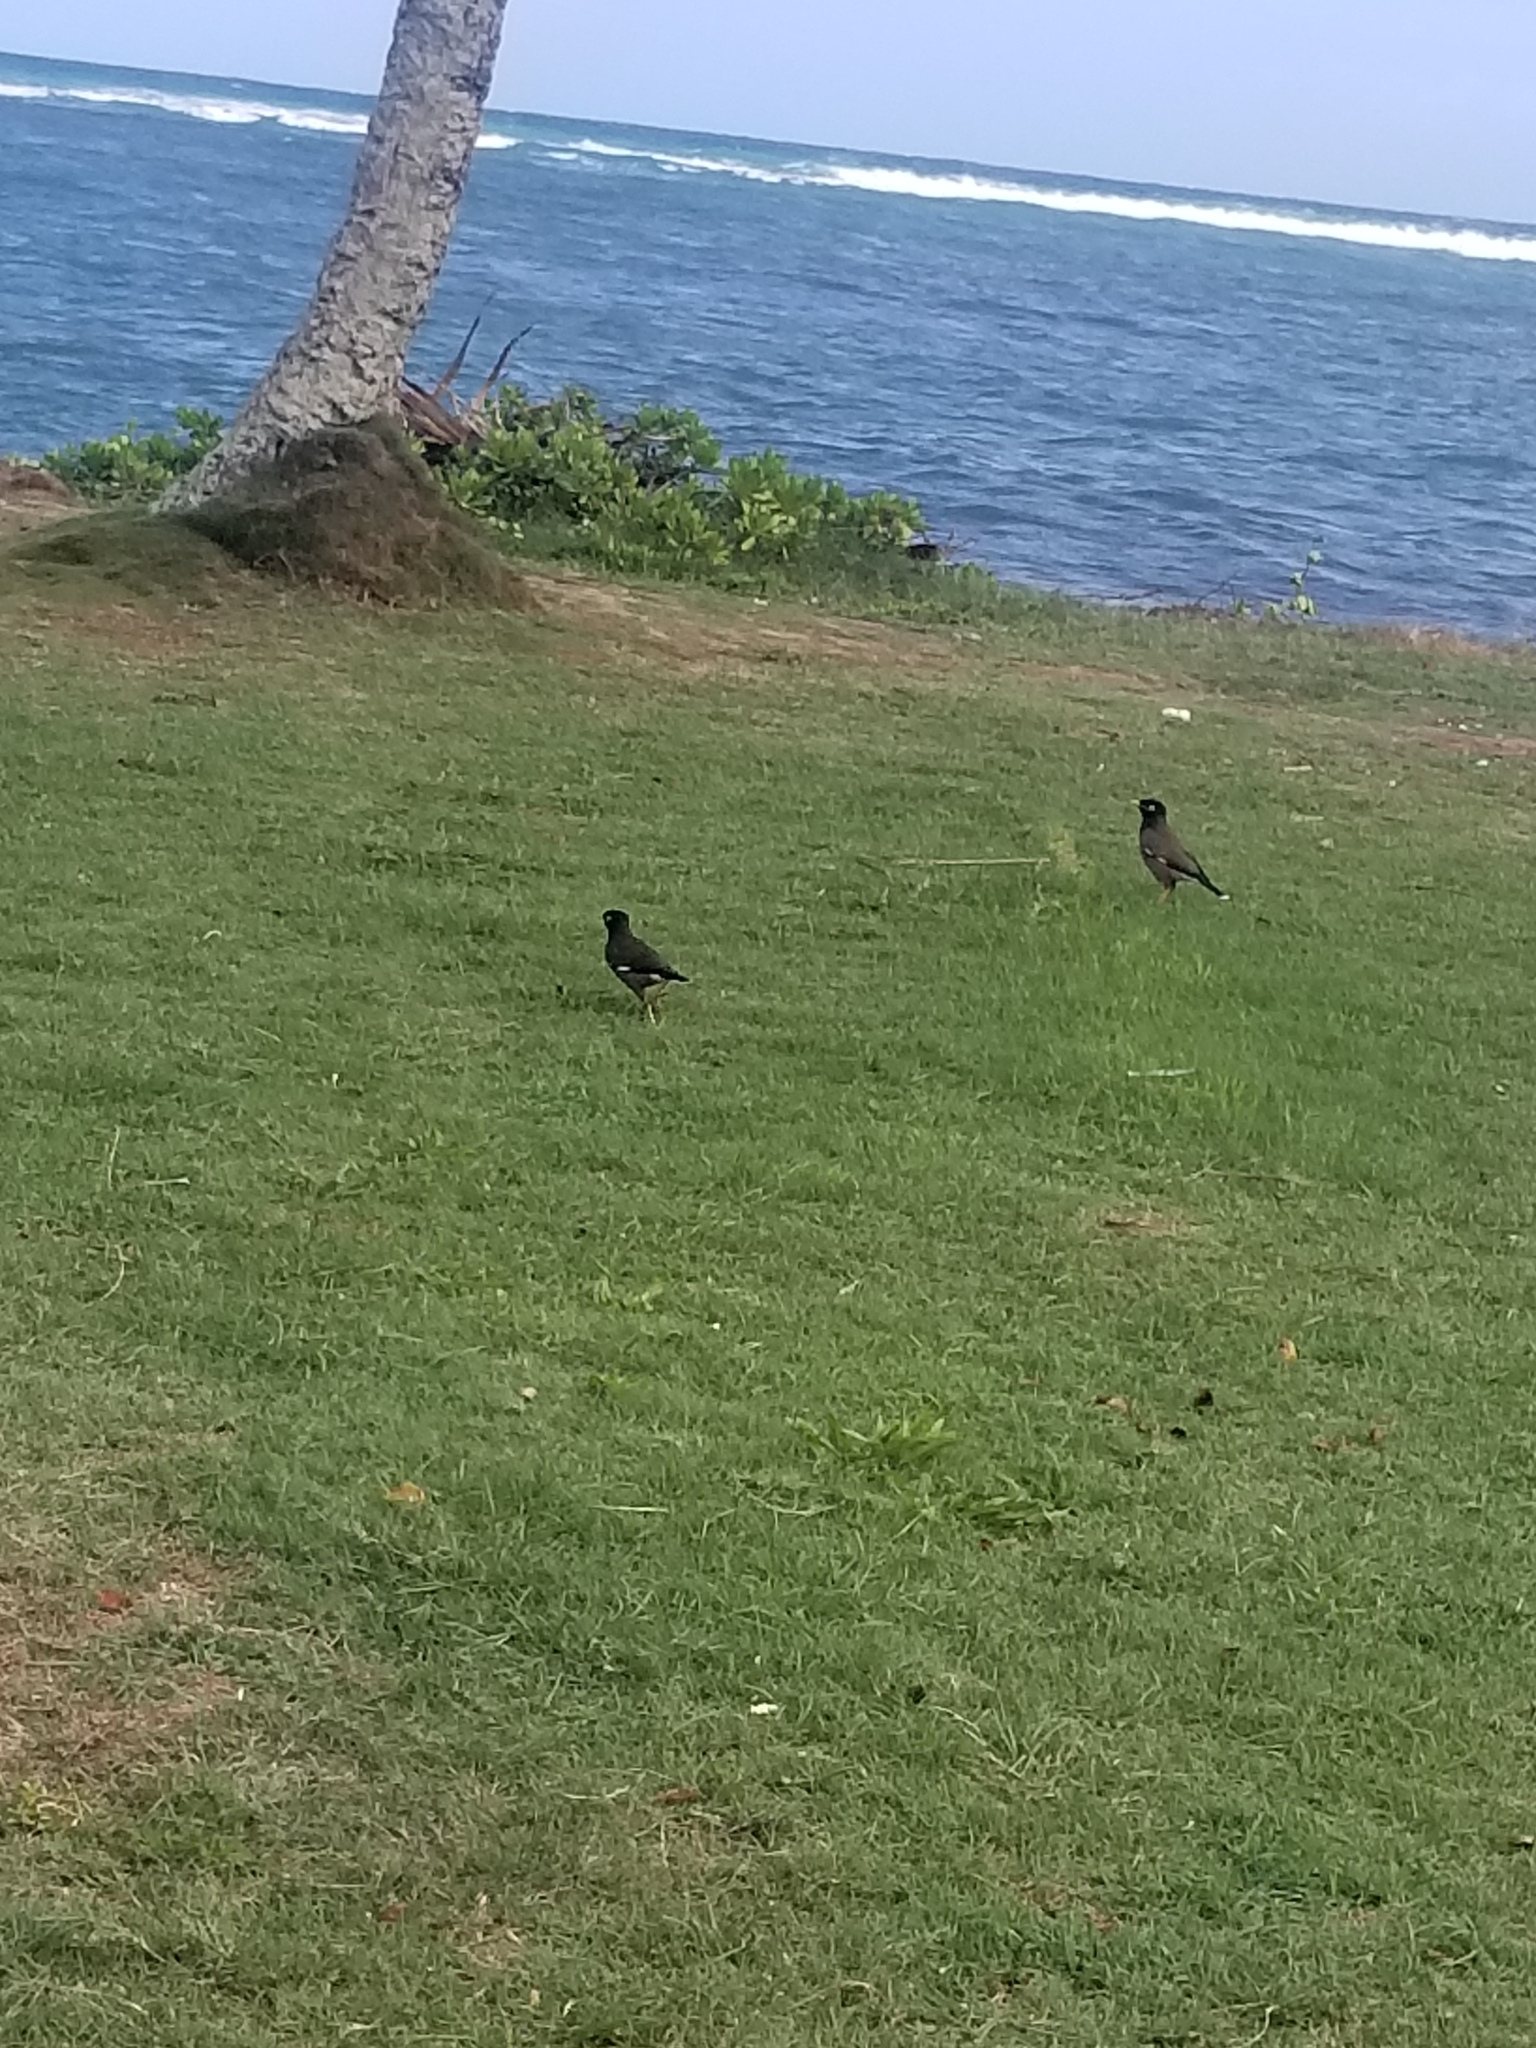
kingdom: Animalia
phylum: Chordata
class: Aves
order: Passeriformes
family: Sturnidae
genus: Acridotheres
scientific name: Acridotheres tristis
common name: Common myna
